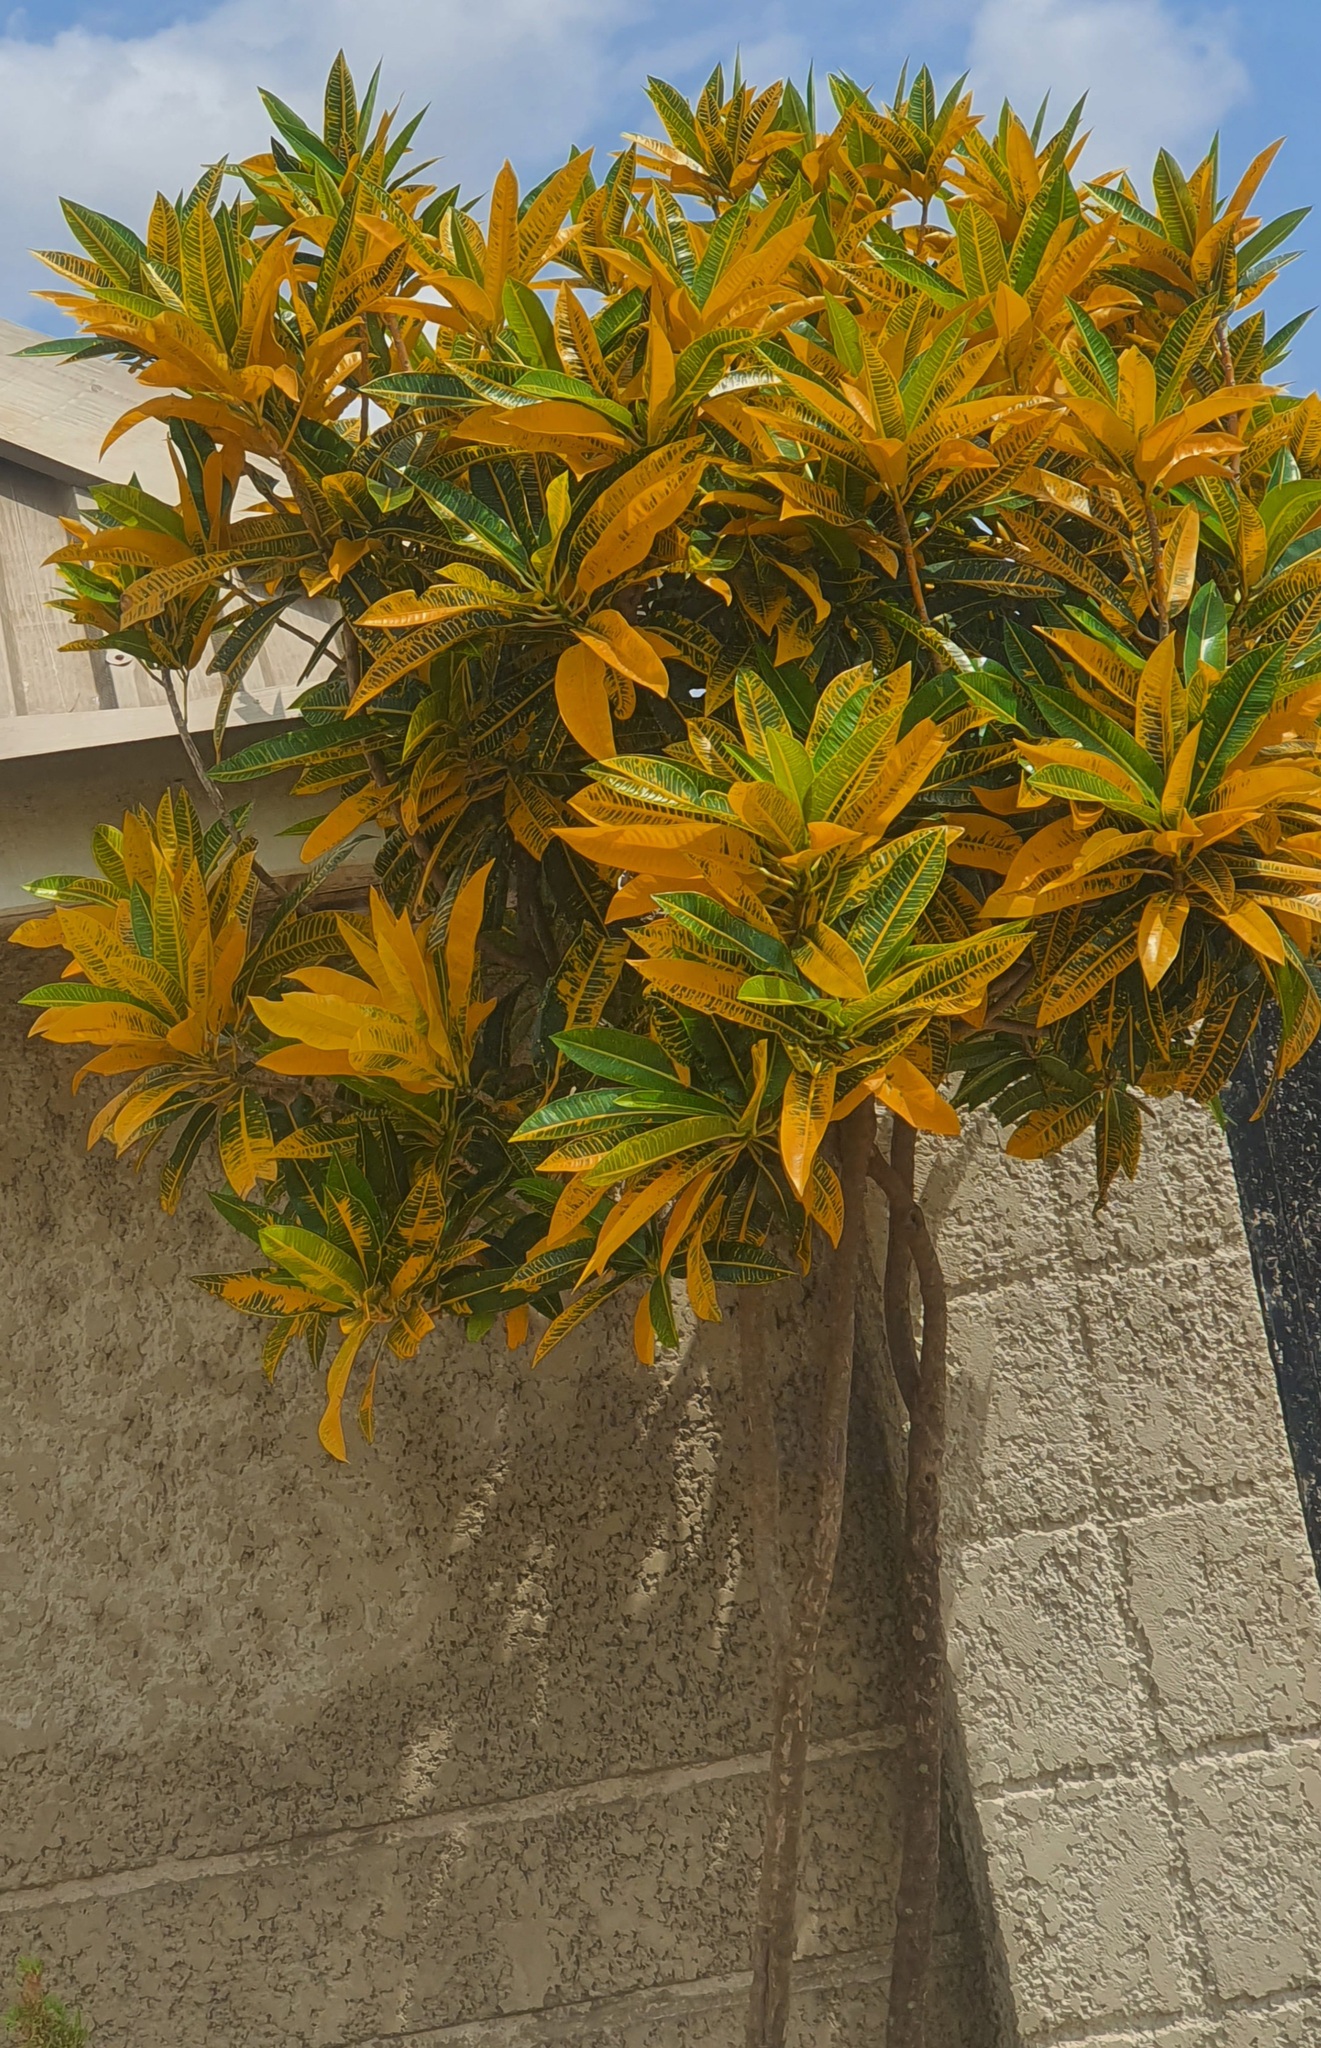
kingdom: Plantae
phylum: Tracheophyta
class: Magnoliopsida
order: Malpighiales
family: Euphorbiaceae
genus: Codiaeum
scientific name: Codiaeum variegatum
